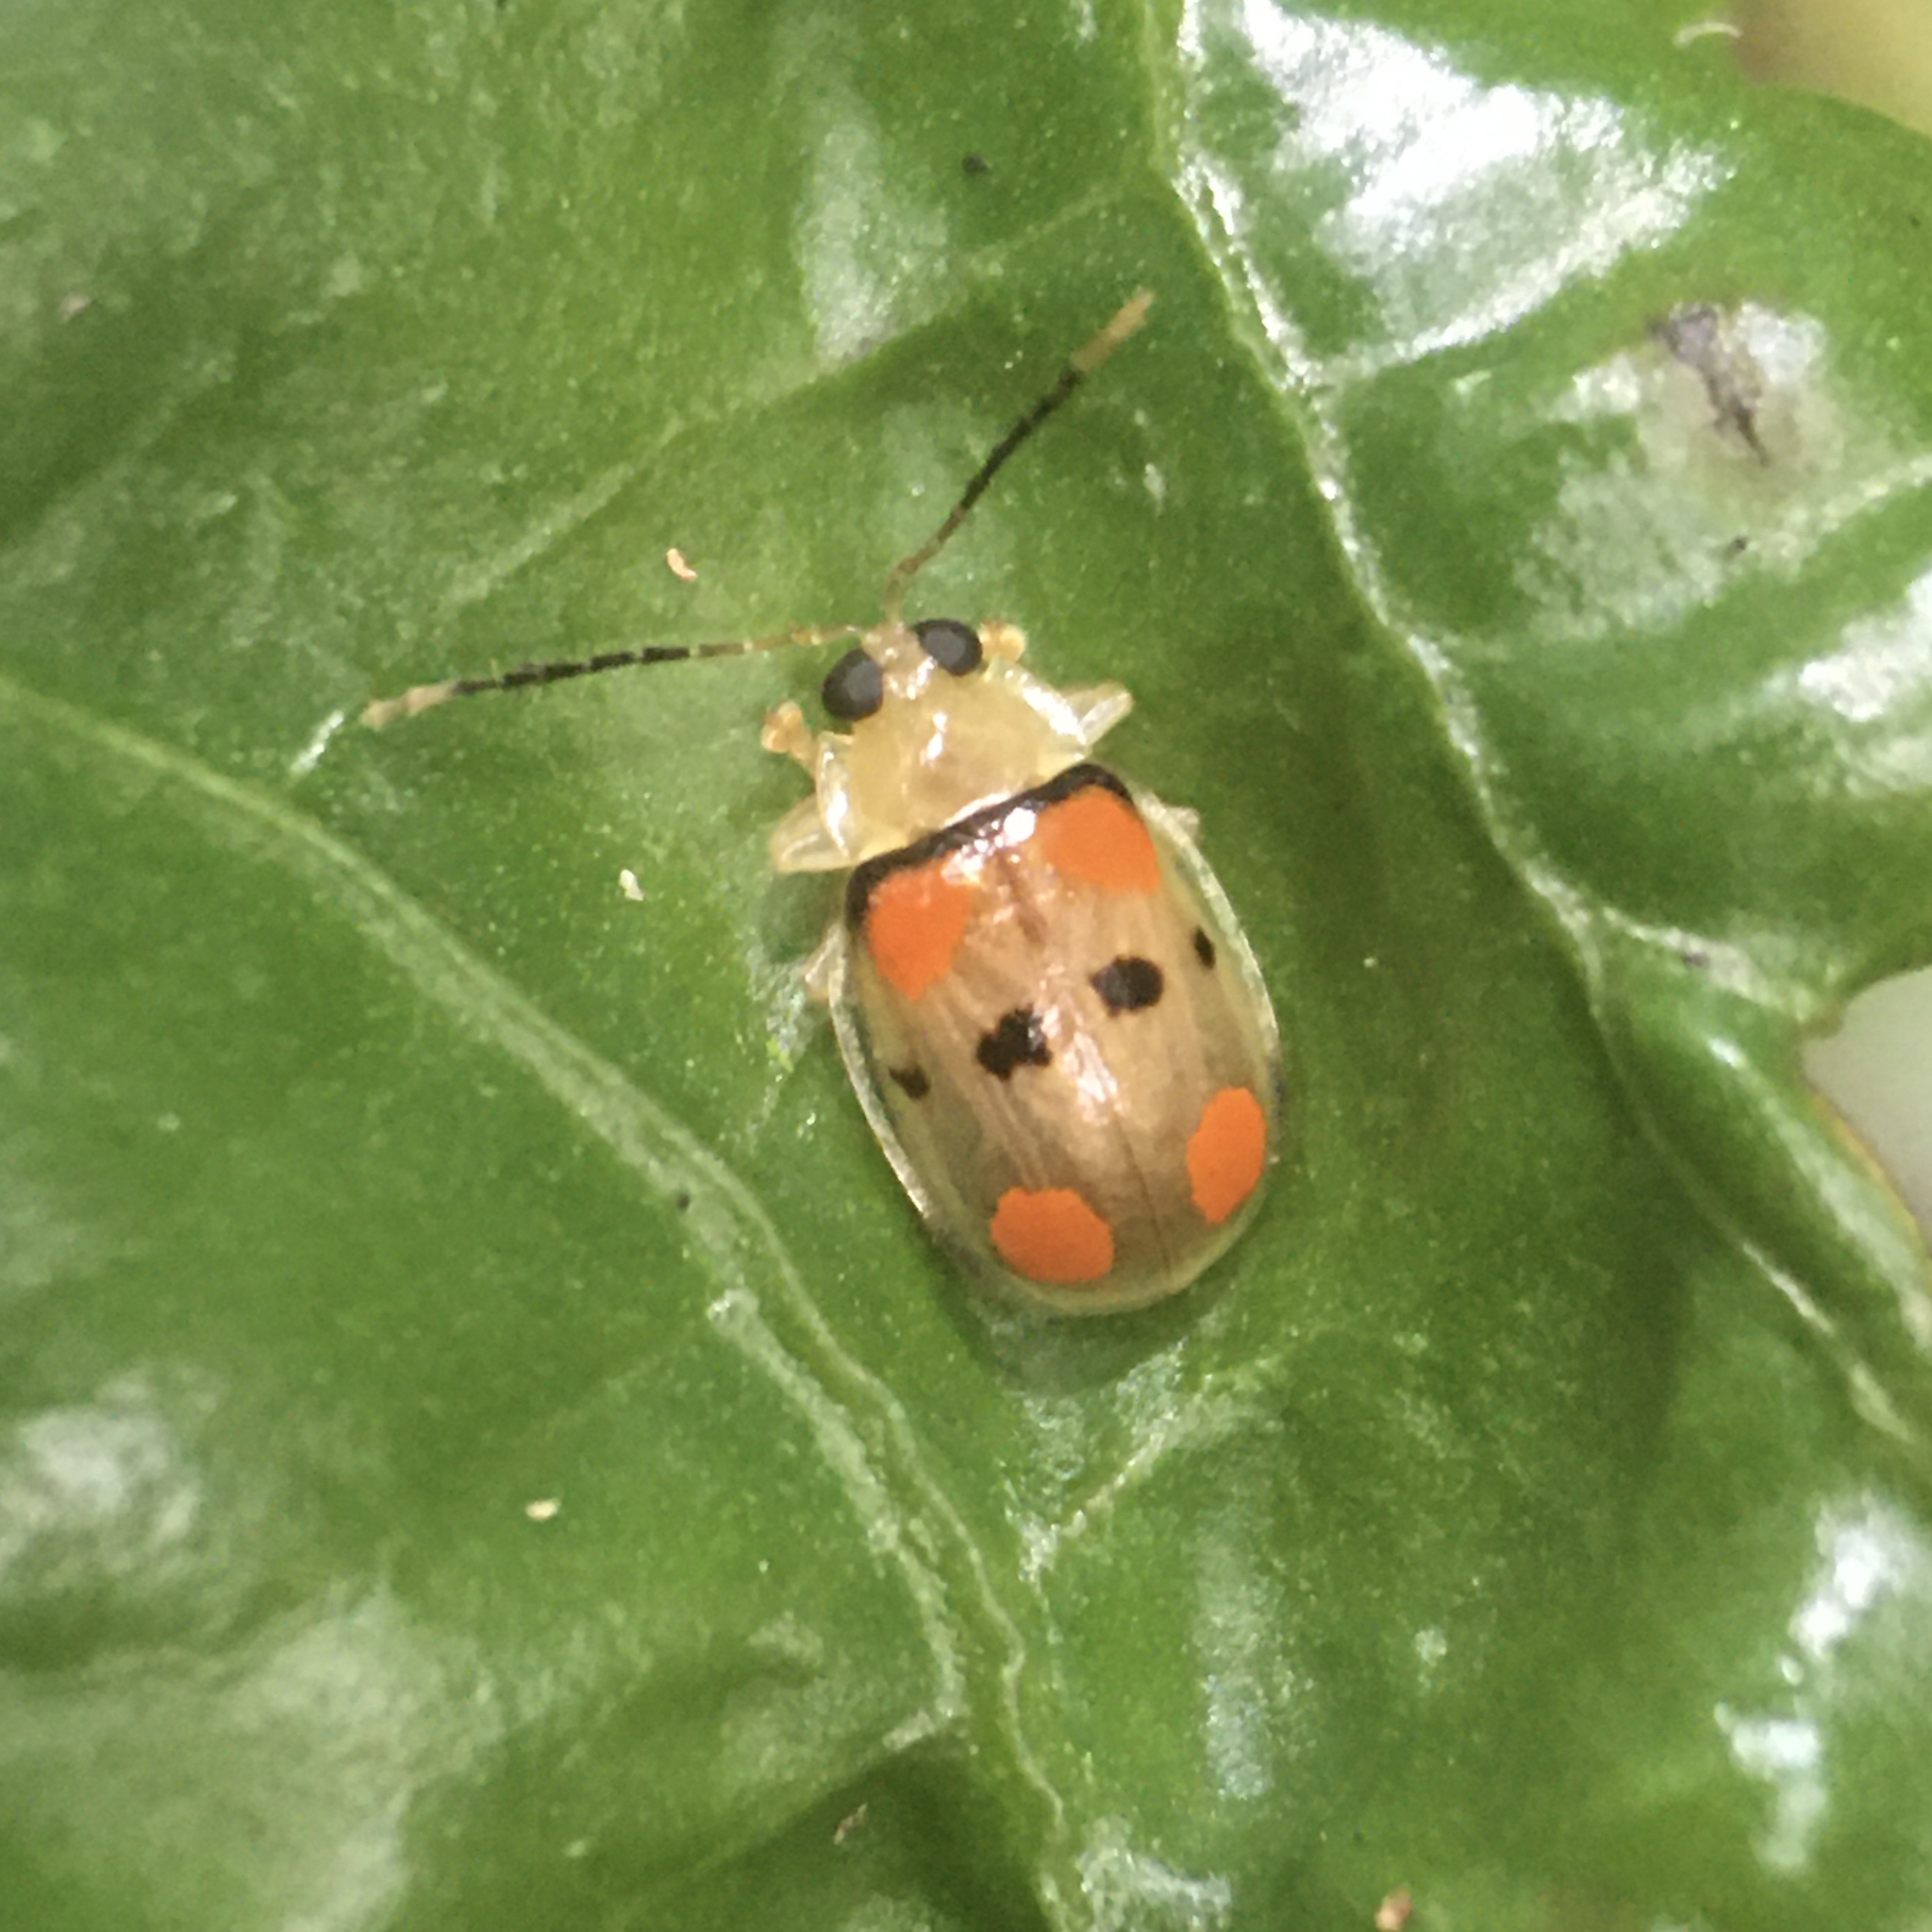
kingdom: Animalia
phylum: Arthropoda
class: Insecta
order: Coleoptera
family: Chrysomelidae
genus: Walterianella
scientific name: Walterianella
